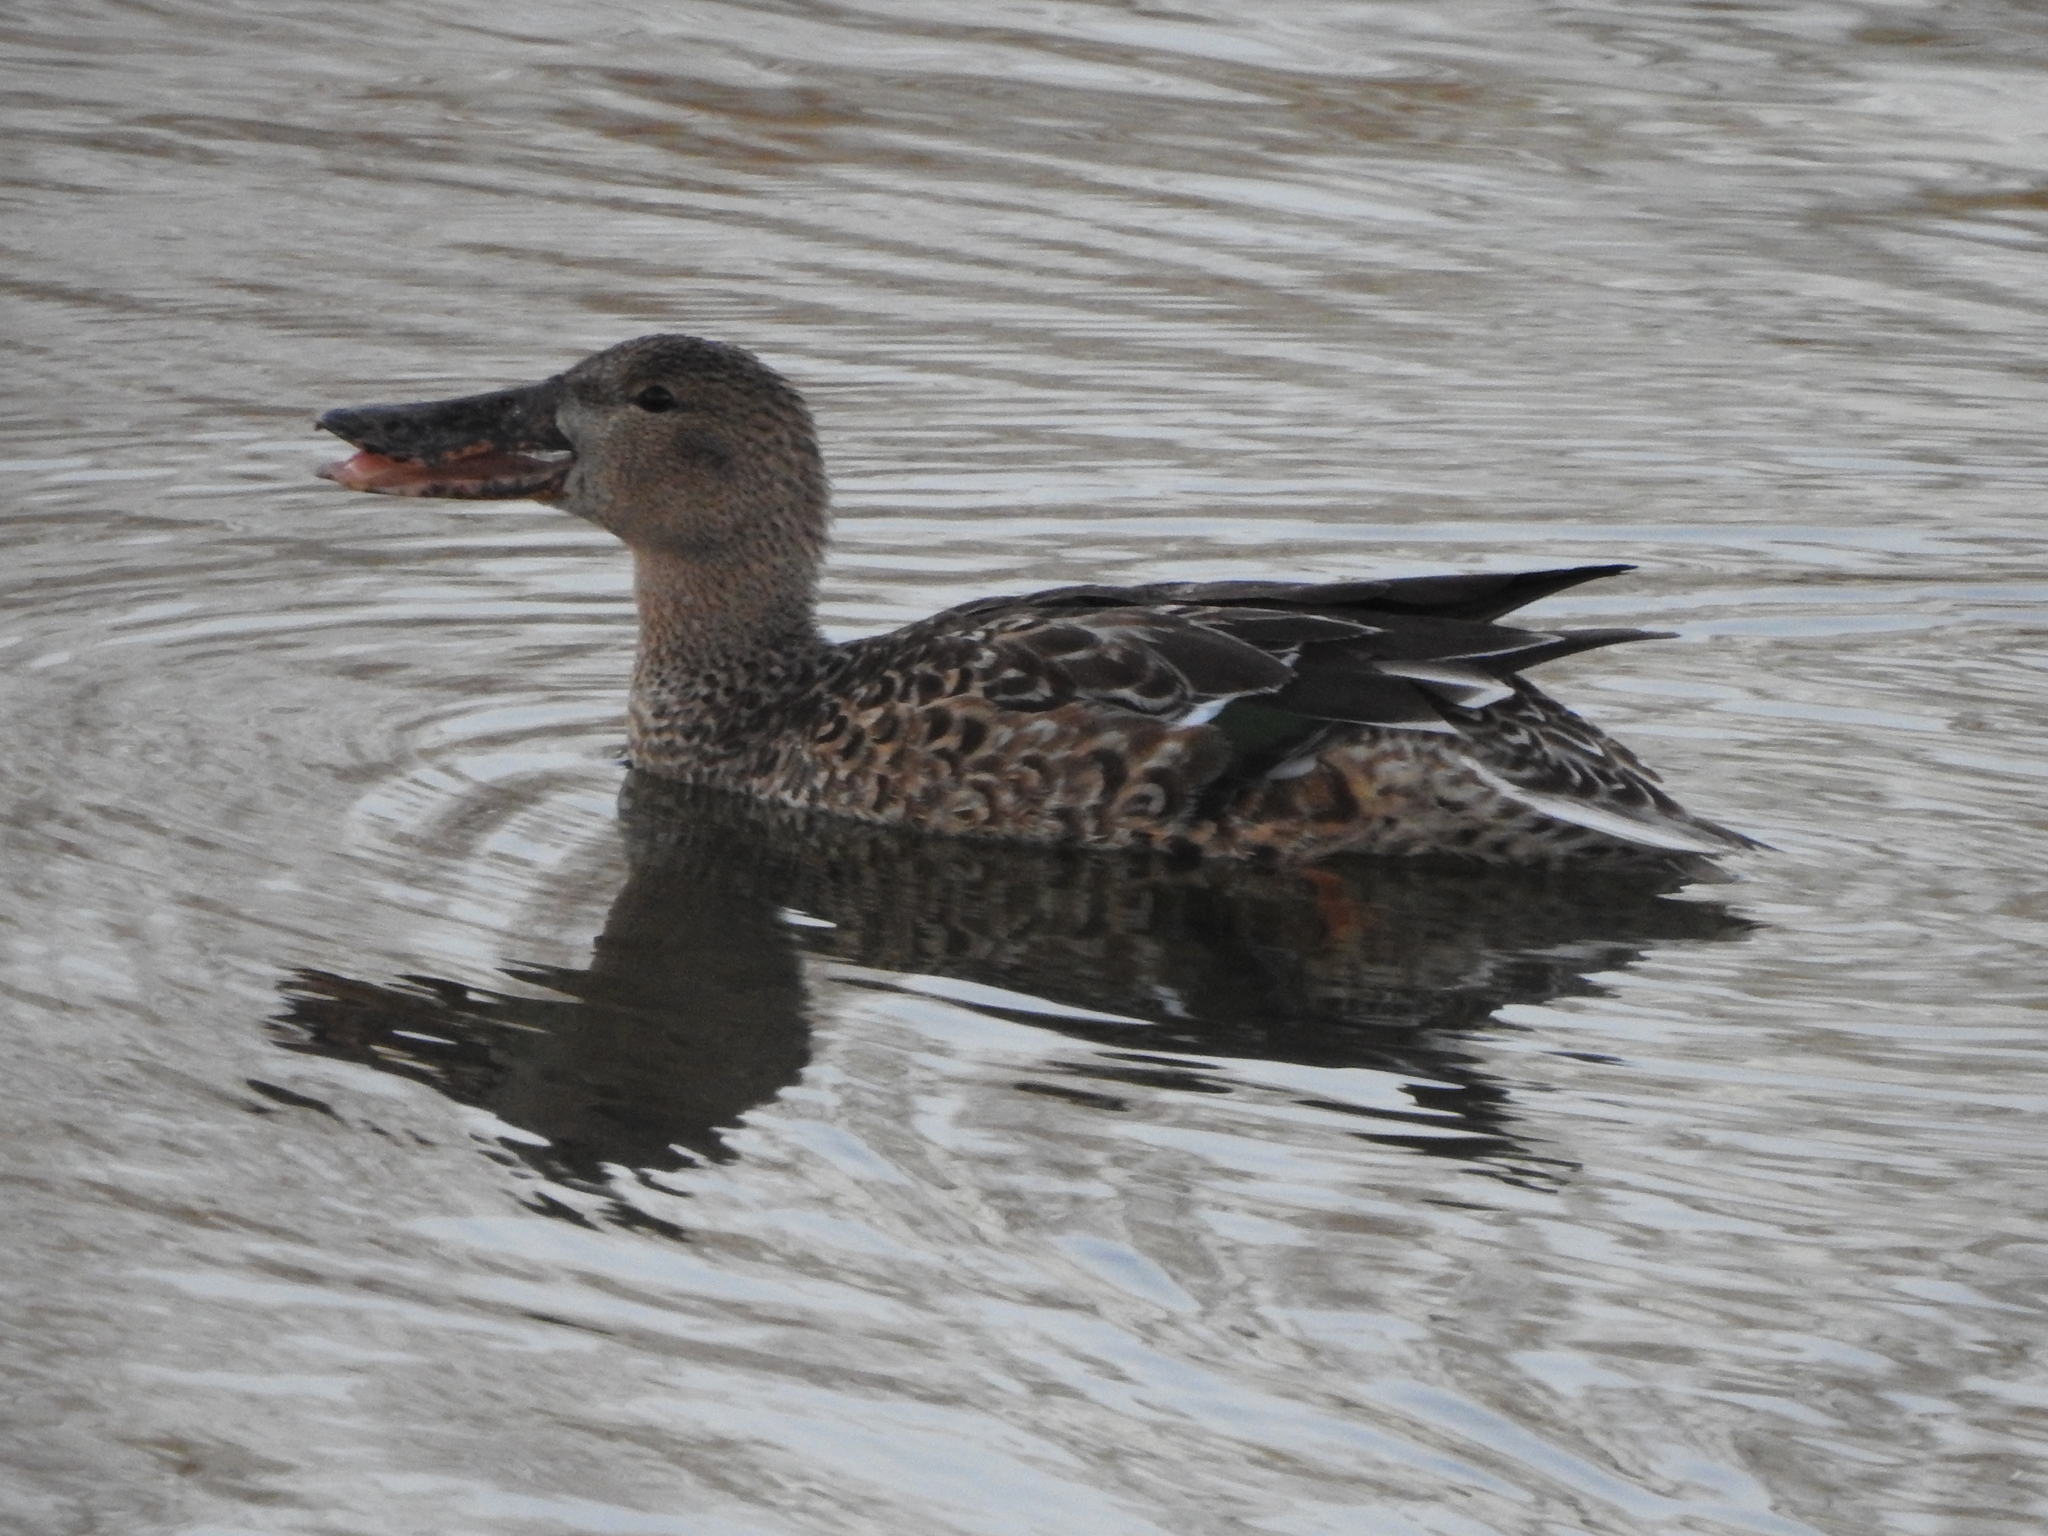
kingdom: Animalia
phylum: Chordata
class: Aves
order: Anseriformes
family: Anatidae
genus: Spatula
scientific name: Spatula clypeata
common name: Northern shoveler
